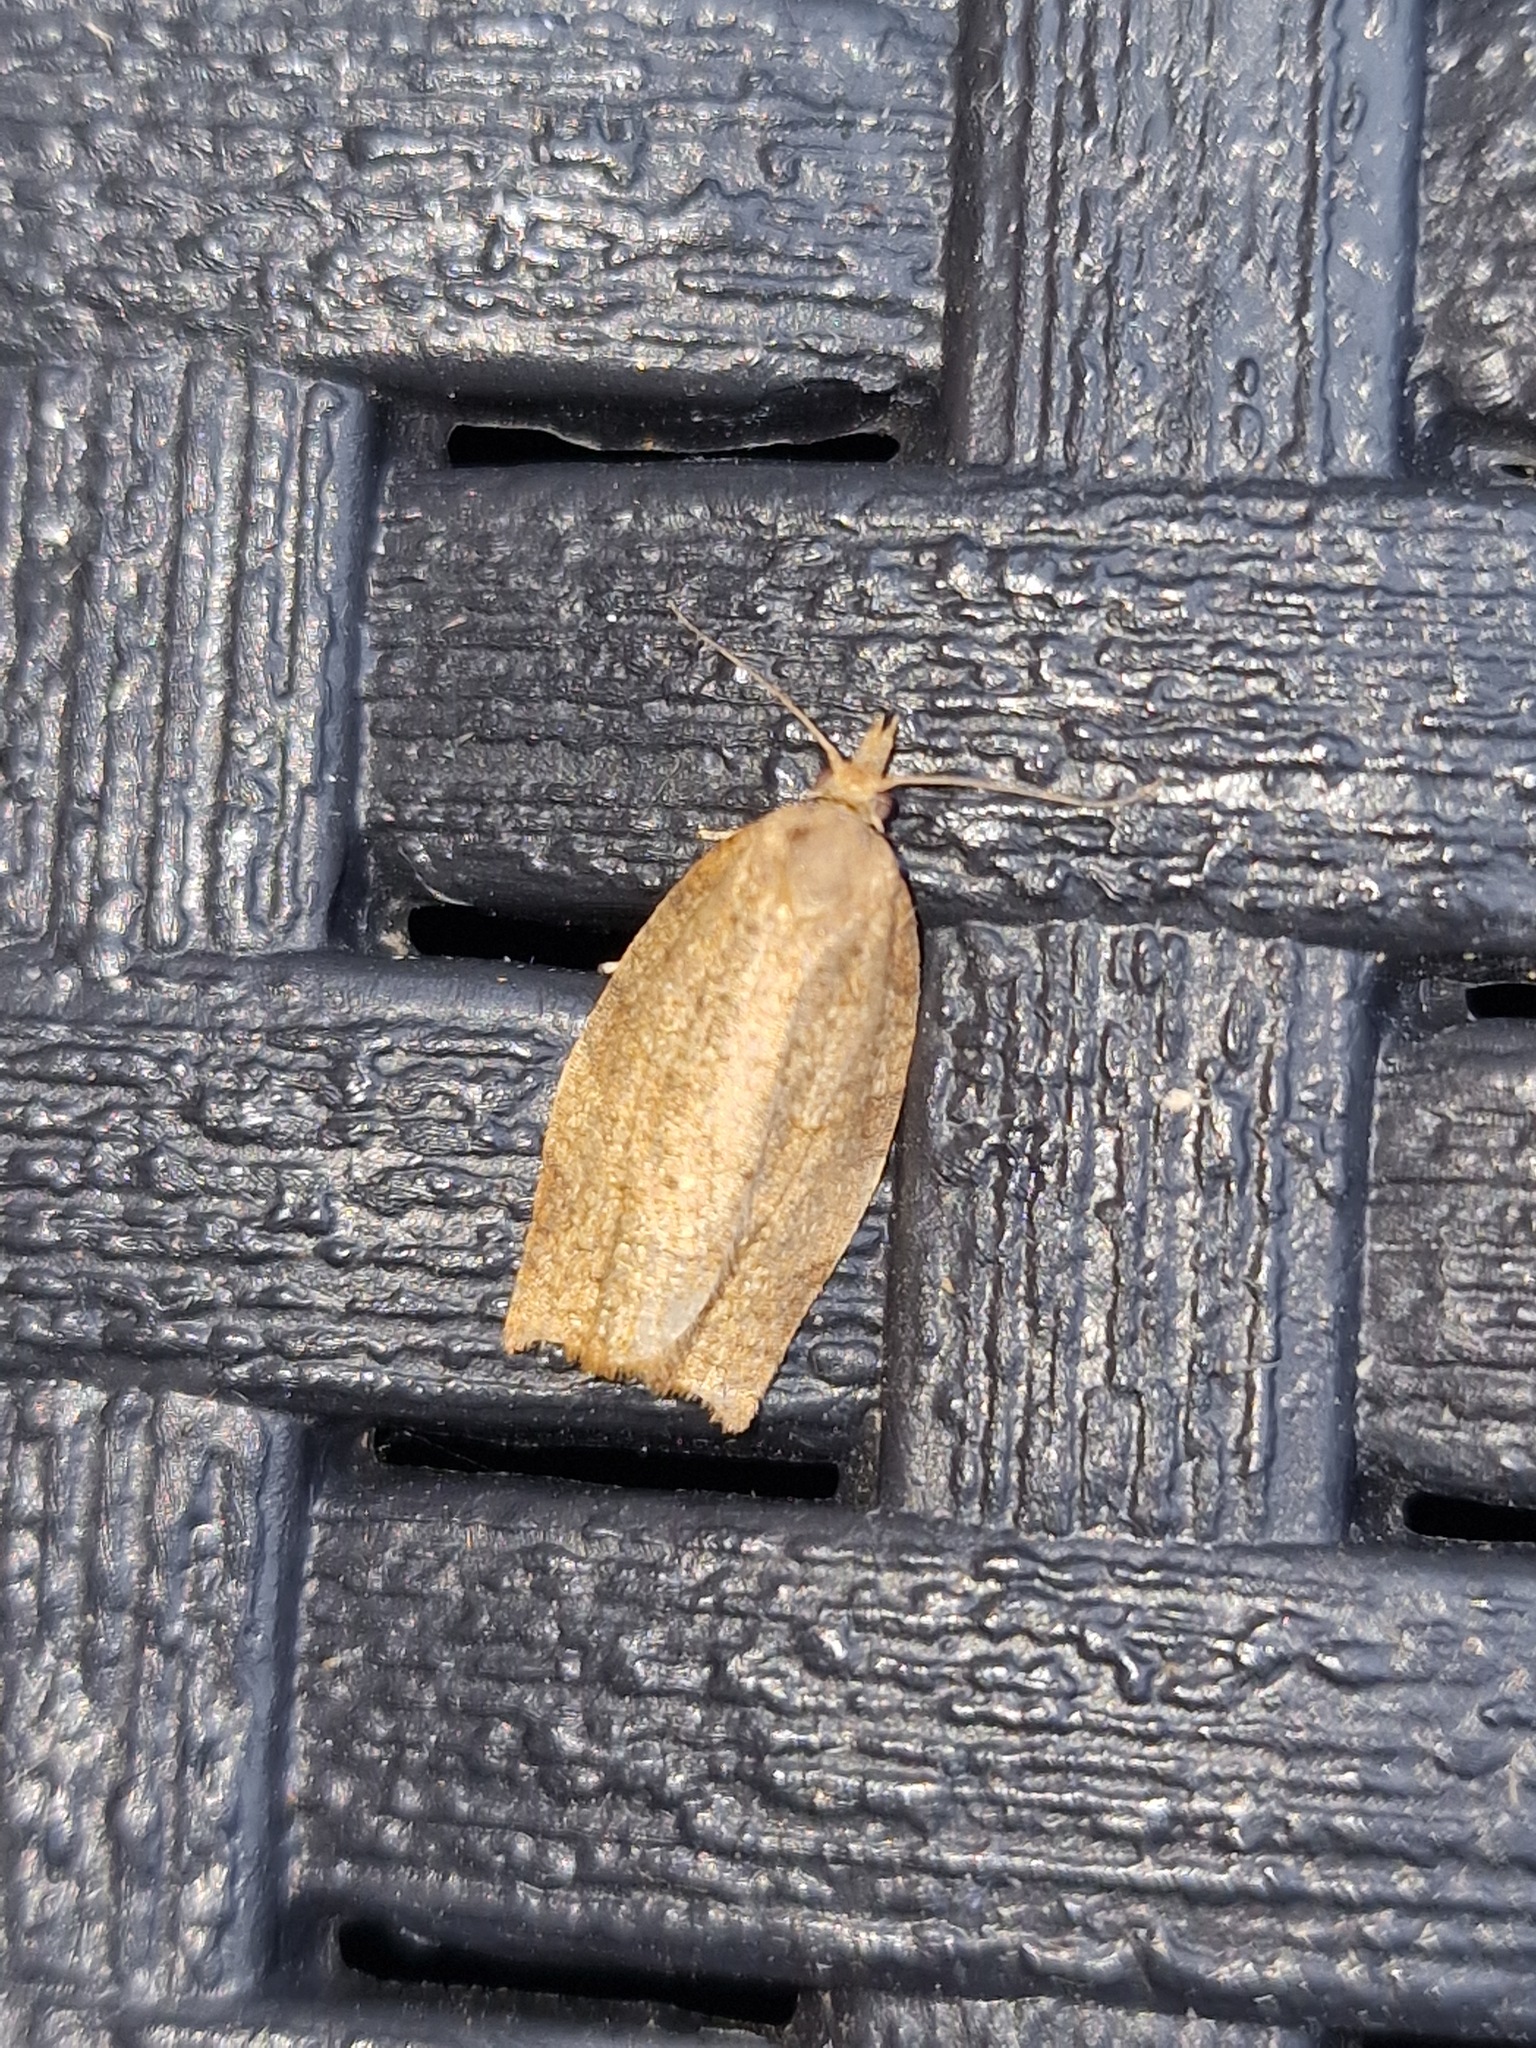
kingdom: Animalia
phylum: Arthropoda
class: Insecta
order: Lepidoptera
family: Tortricidae
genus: Pandemis
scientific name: Pandemis heparana
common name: Dark fruit-tree tortrix
